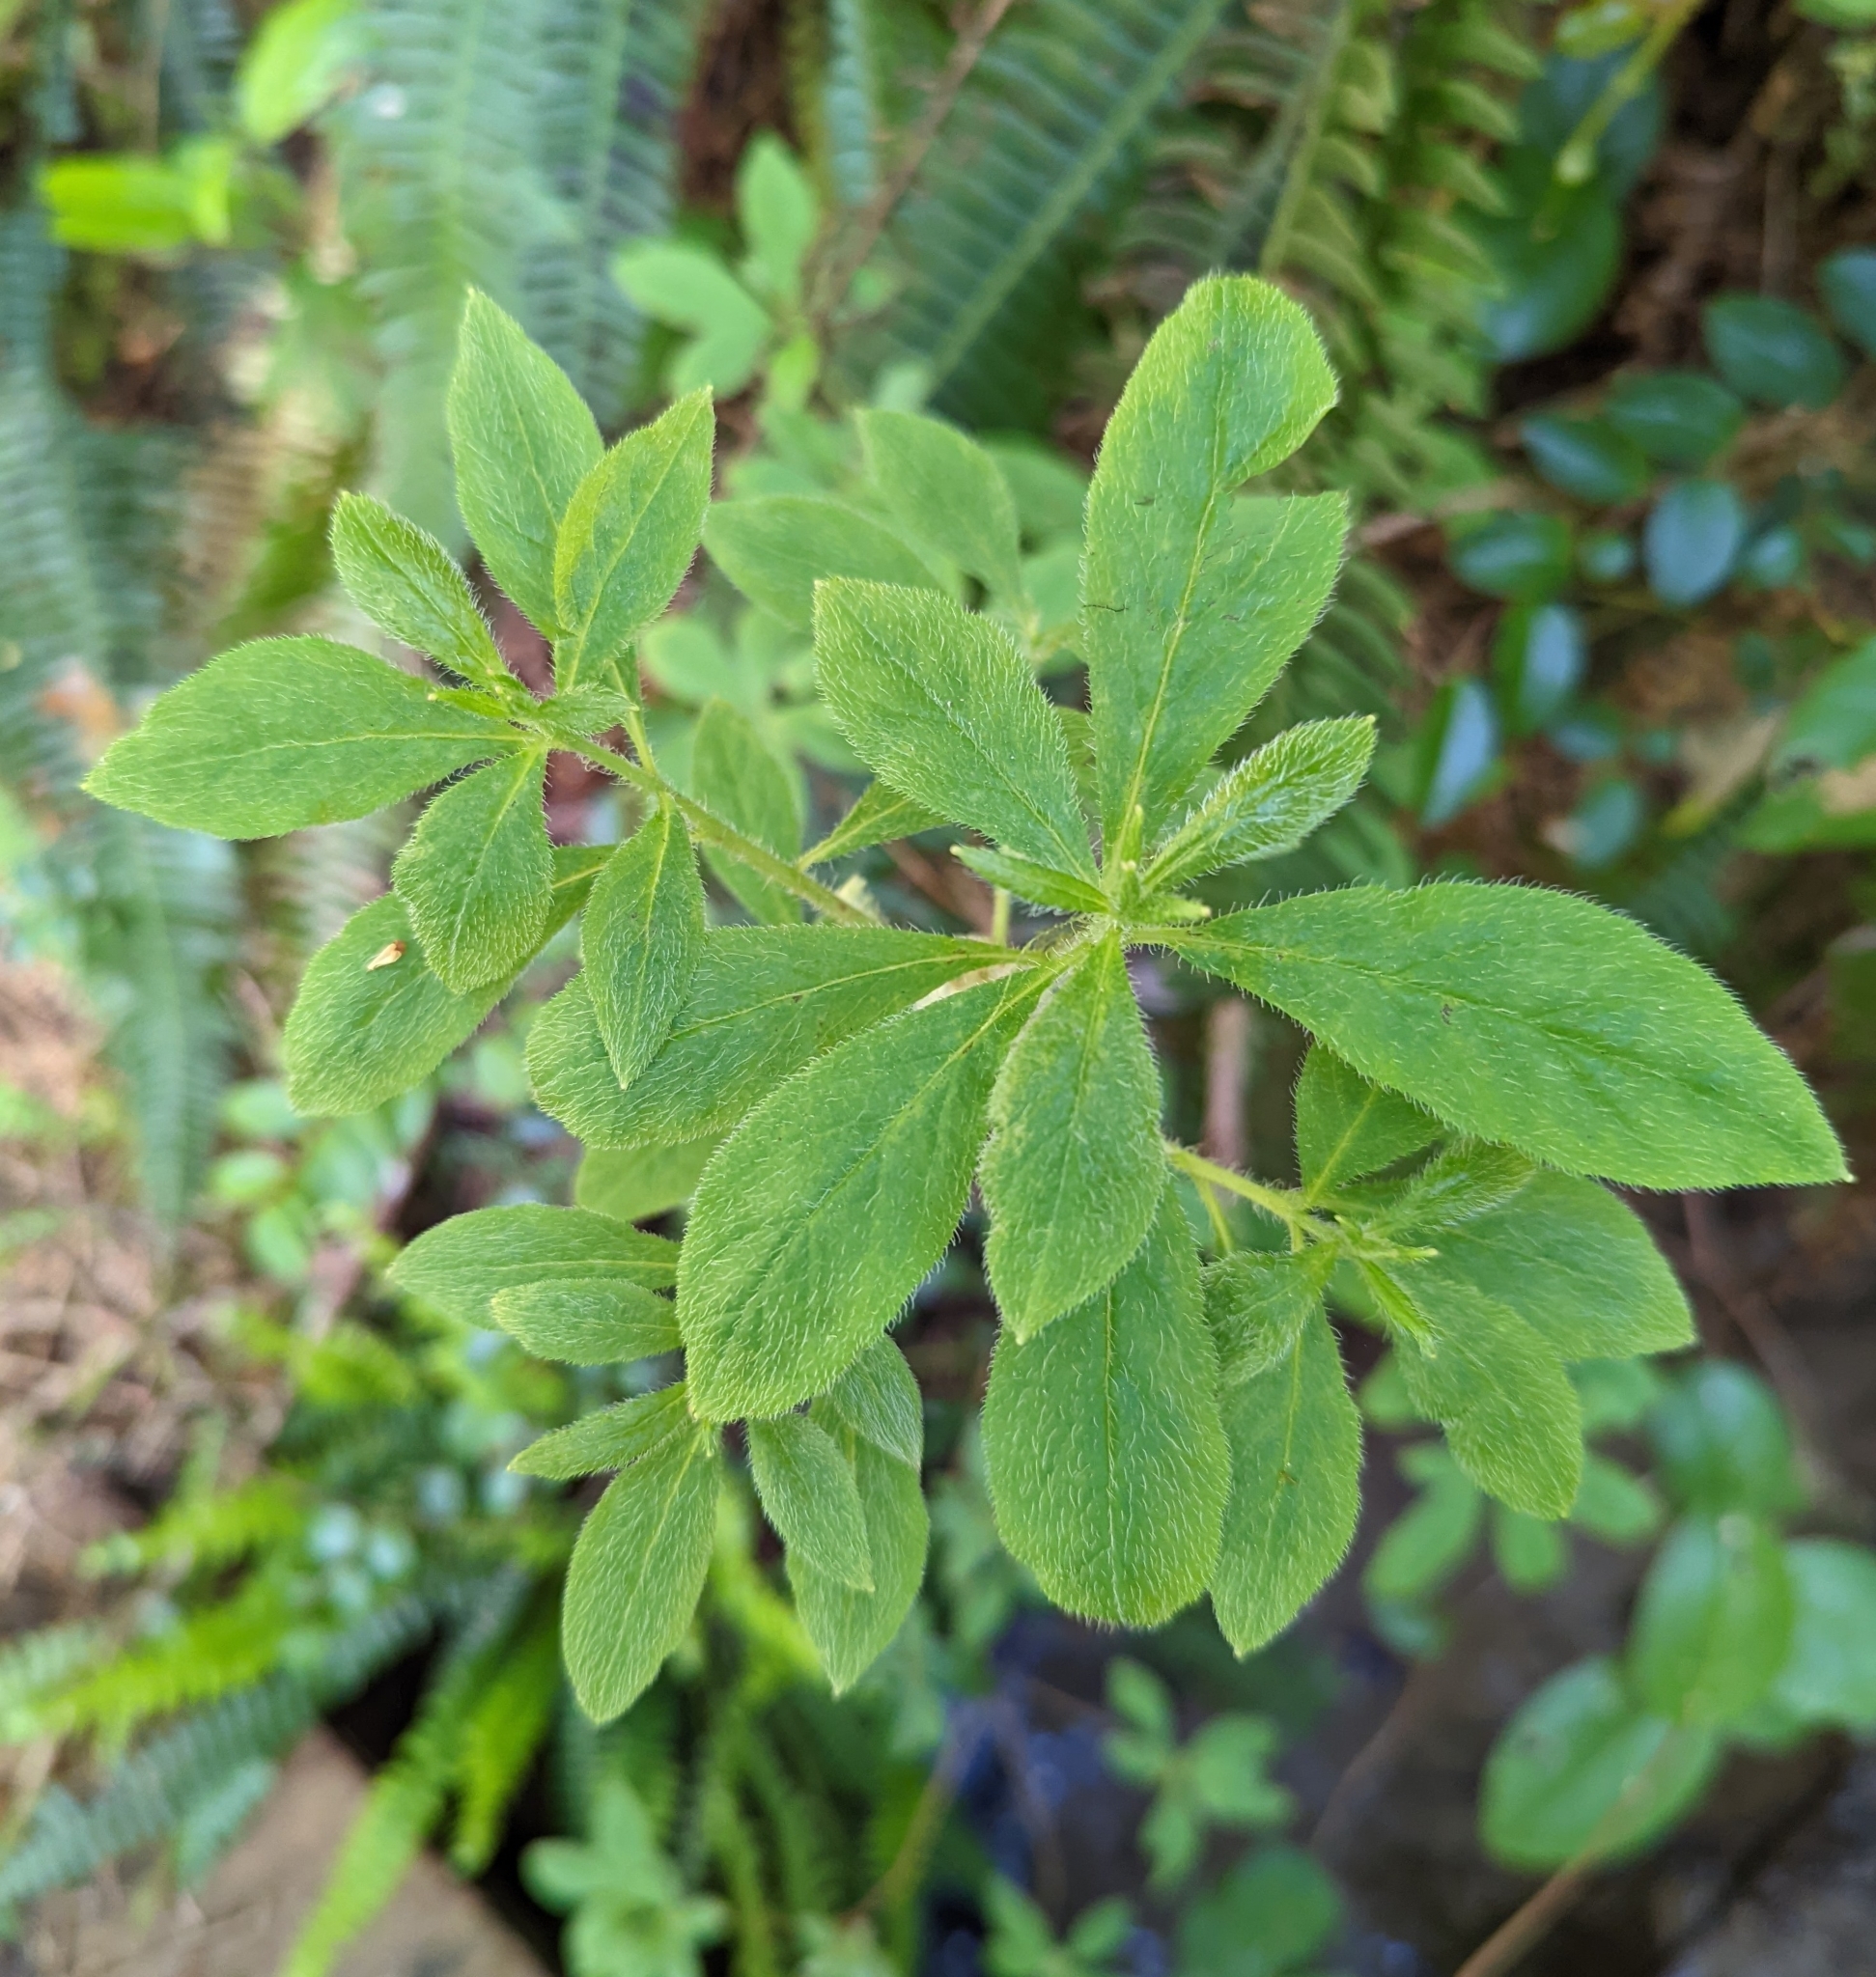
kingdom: Plantae
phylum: Tracheophyta
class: Magnoliopsida
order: Ericales
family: Ericaceae
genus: Rhododendron
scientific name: Rhododendron menziesii
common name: Pacific menziesia
